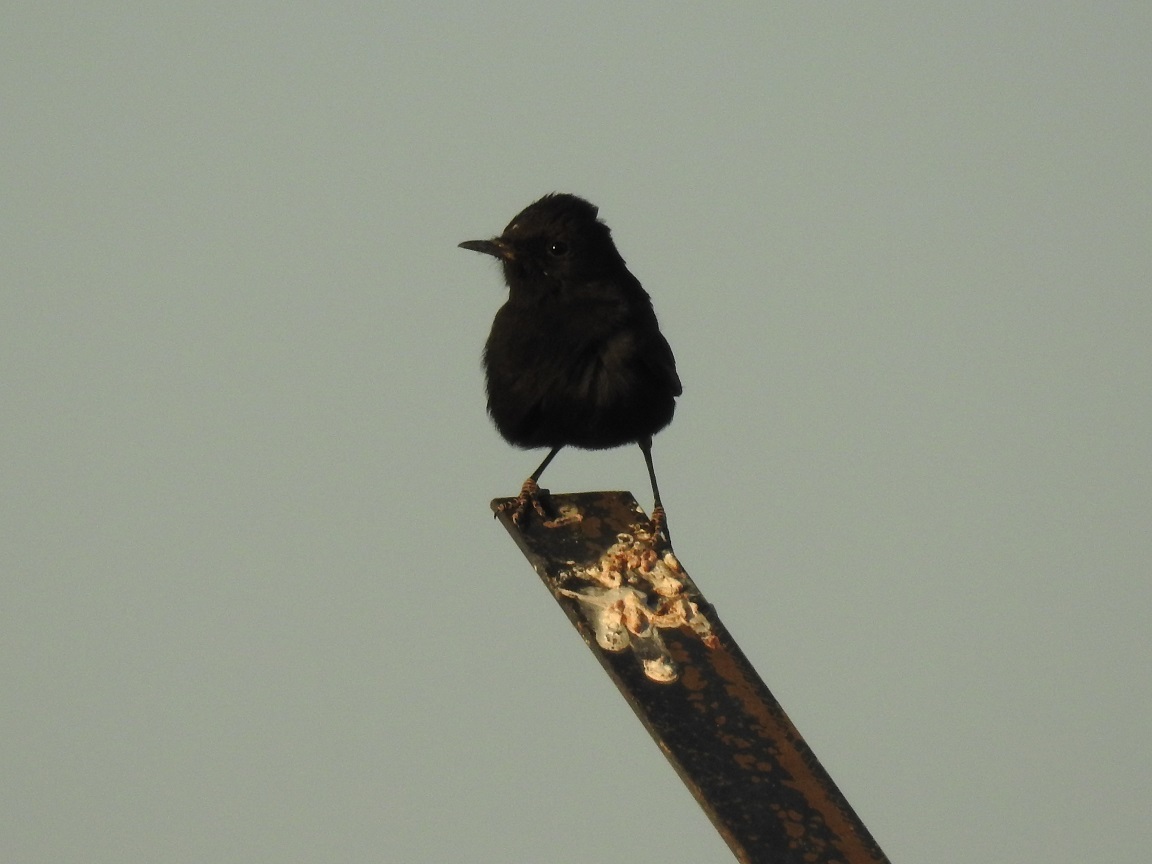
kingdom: Animalia
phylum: Chordata
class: Aves
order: Passeriformes
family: Muscicapidae
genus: Oenanthe
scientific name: Oenanthe leucopyga
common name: White-crowned wheatear
